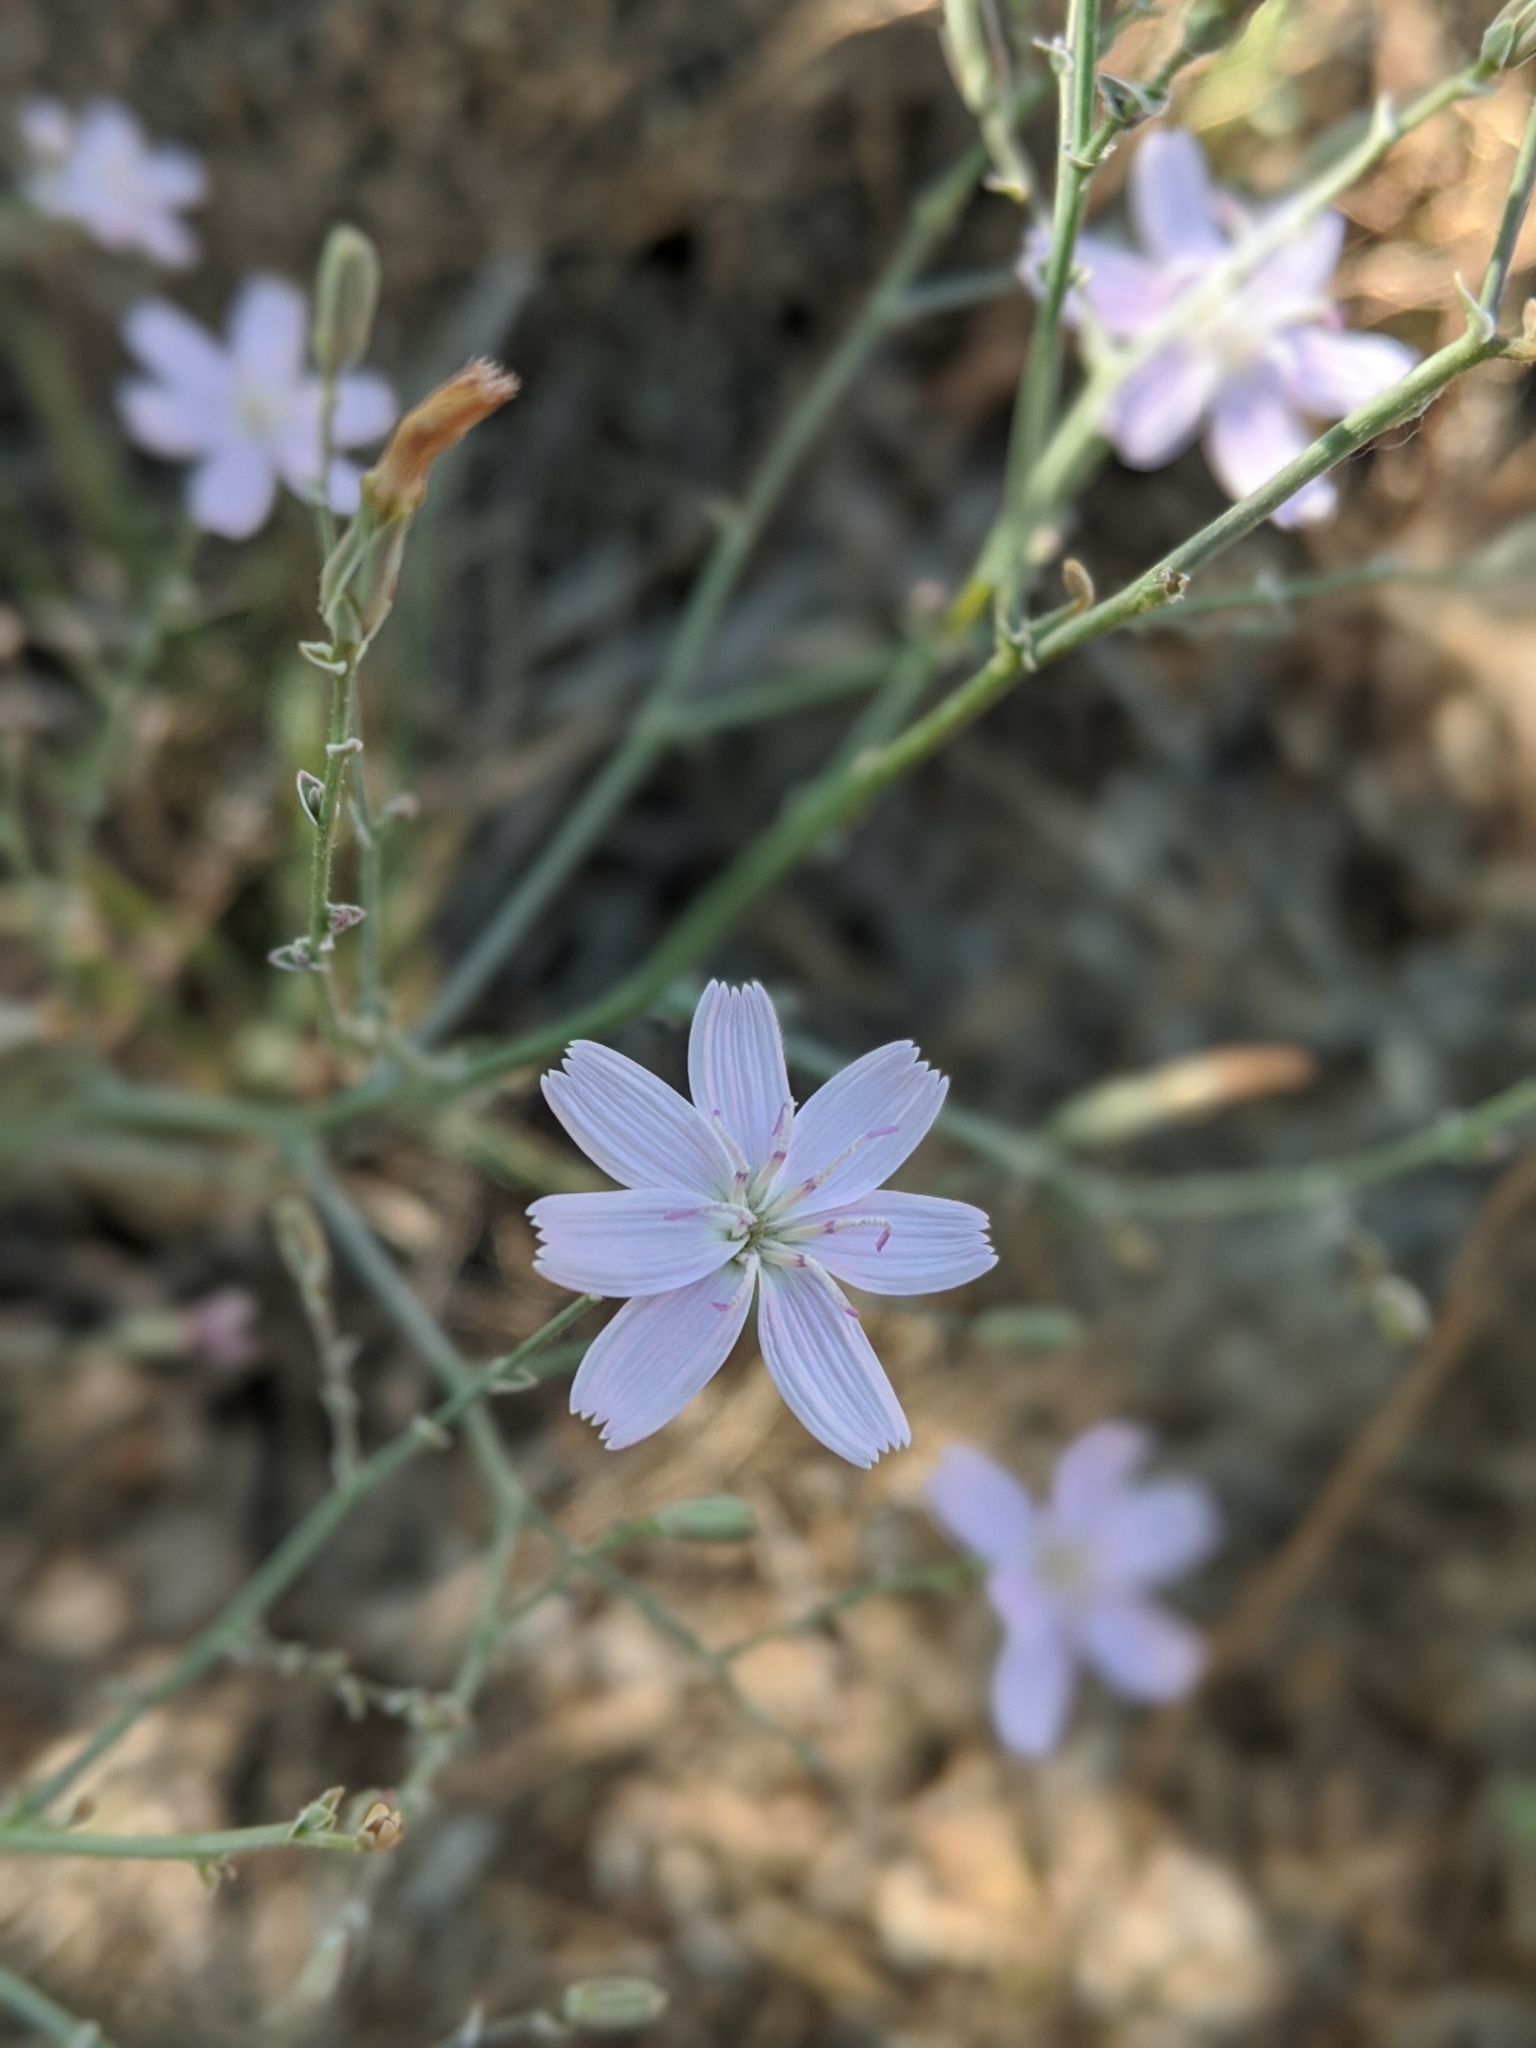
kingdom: Plantae
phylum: Tracheophyta
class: Magnoliopsida
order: Asterales
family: Asteraceae
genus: Stephanomeria
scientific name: Stephanomeria pauciflora
